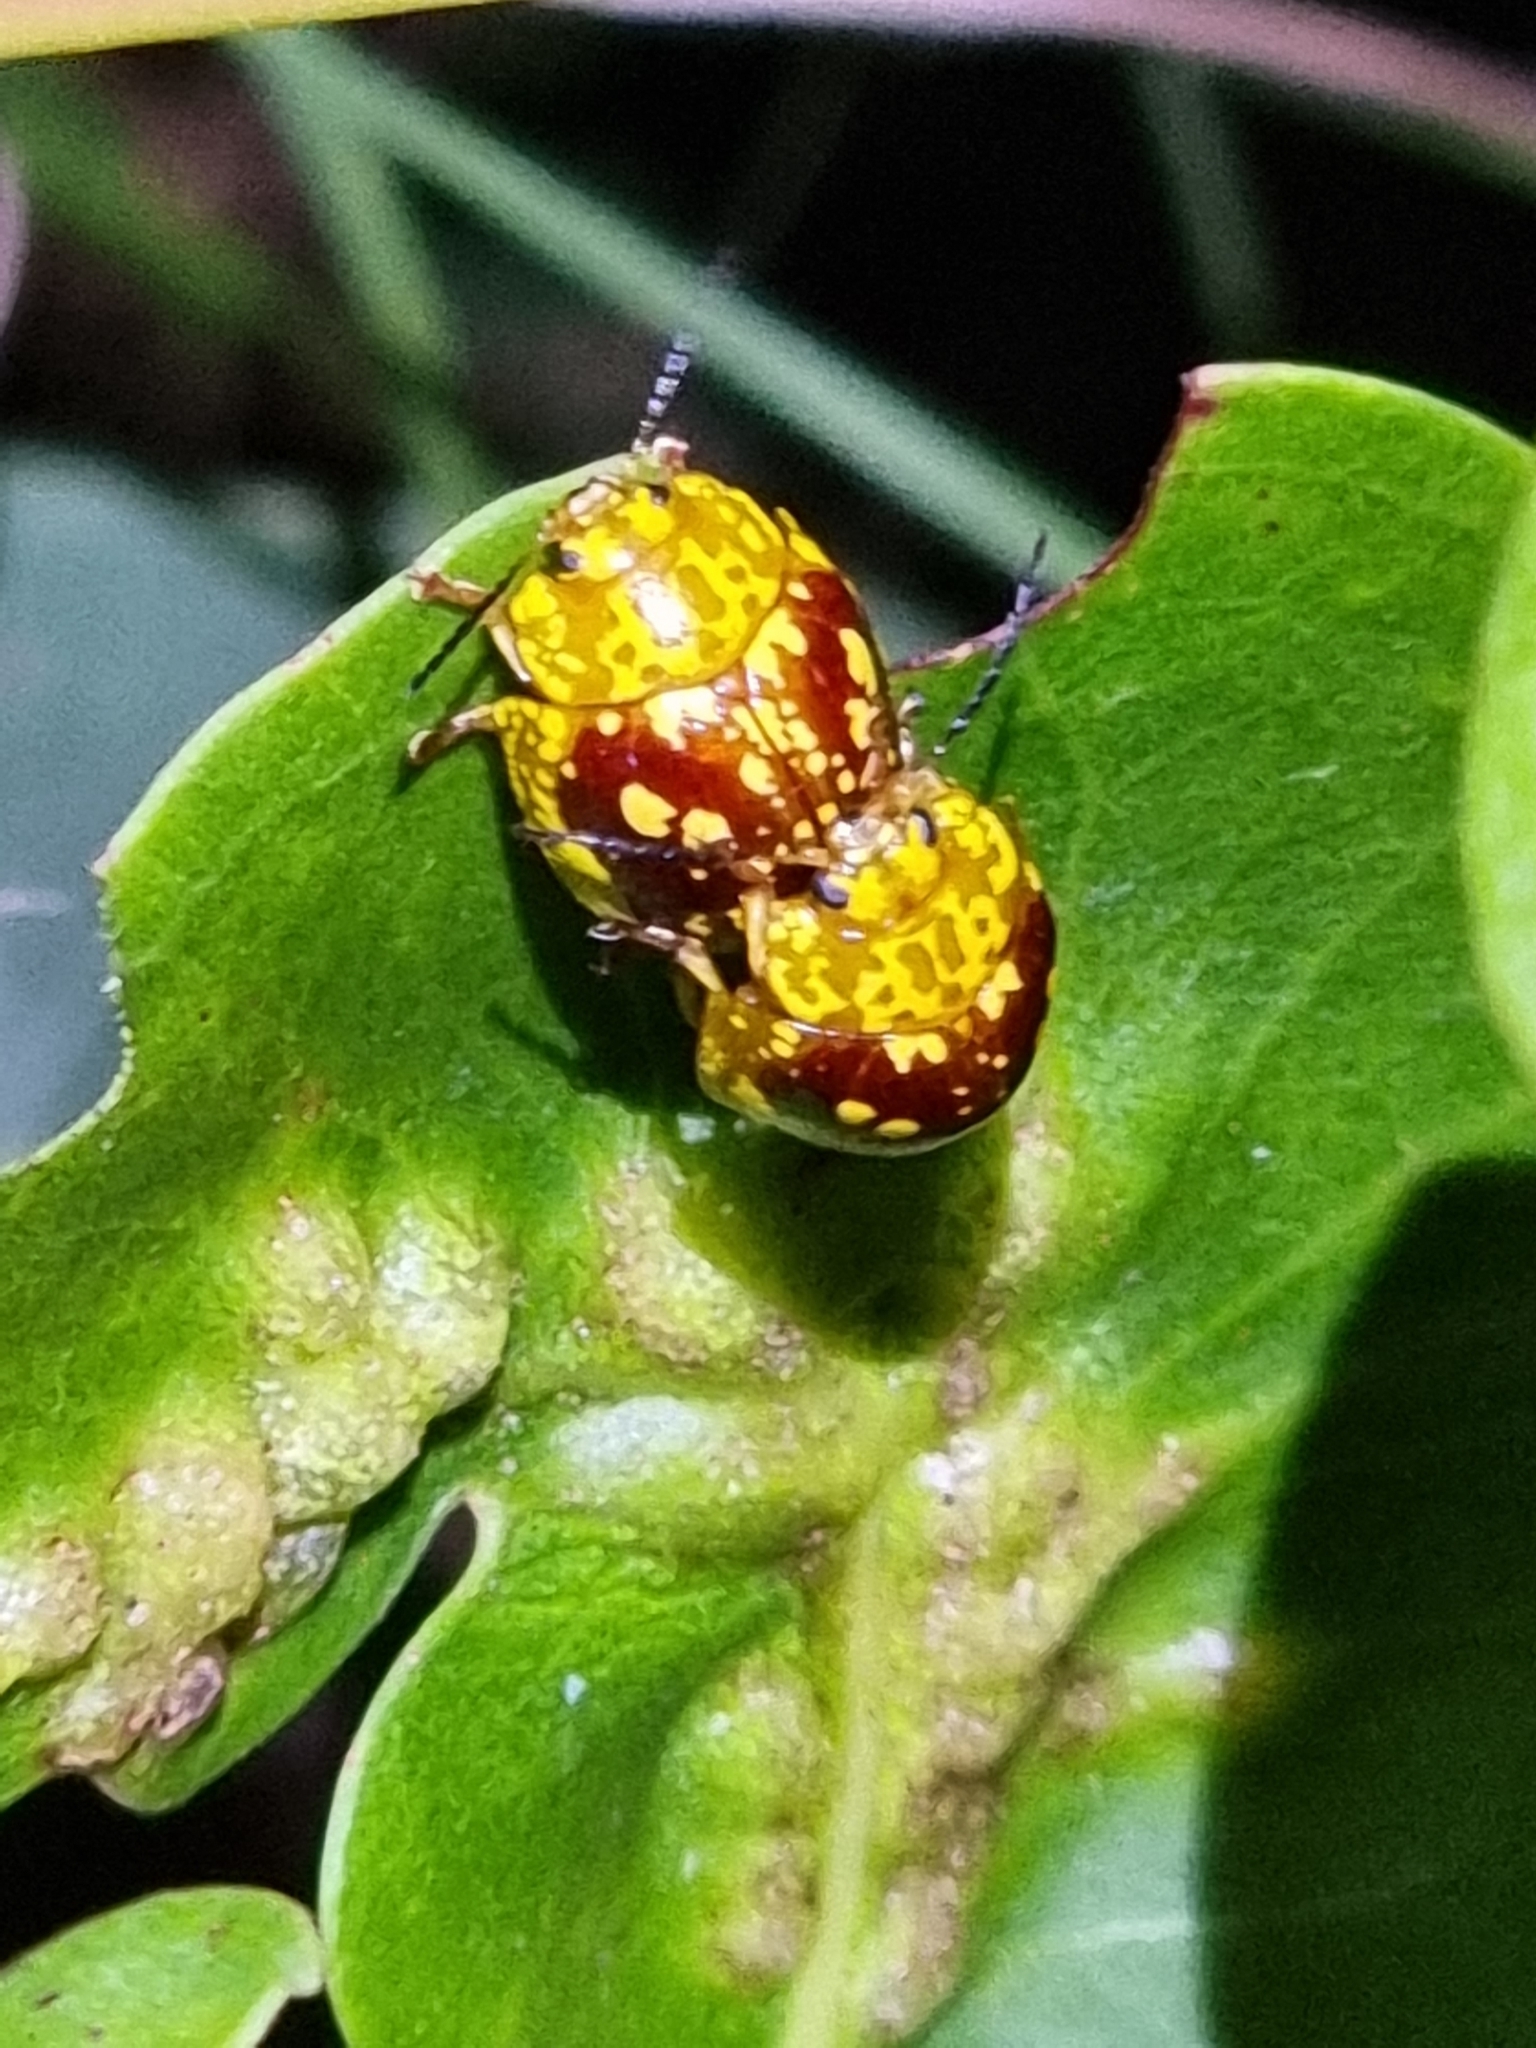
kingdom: Animalia
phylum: Arthropoda
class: Insecta
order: Coleoptera
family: Chrysomelidae
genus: Paropsis
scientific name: Paropsis maculata
